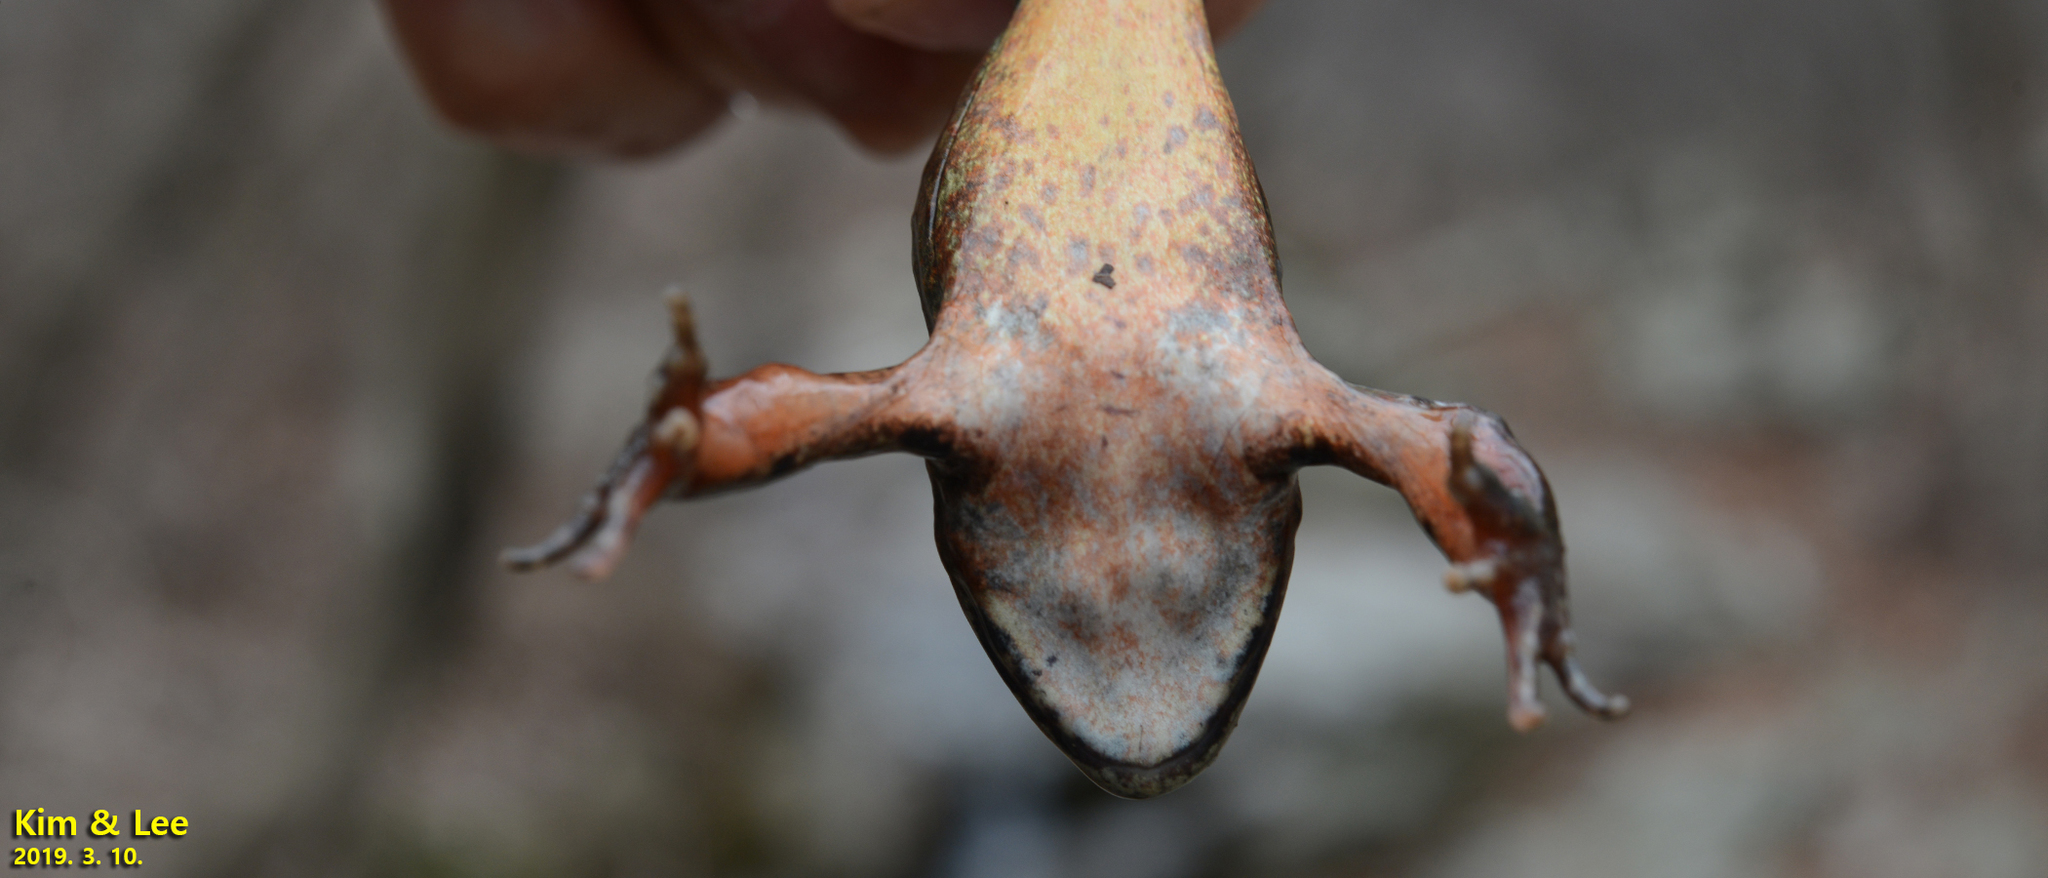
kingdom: Animalia
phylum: Chordata
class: Amphibia
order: Anura
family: Ranidae
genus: Rana
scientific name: Rana dybowskii
